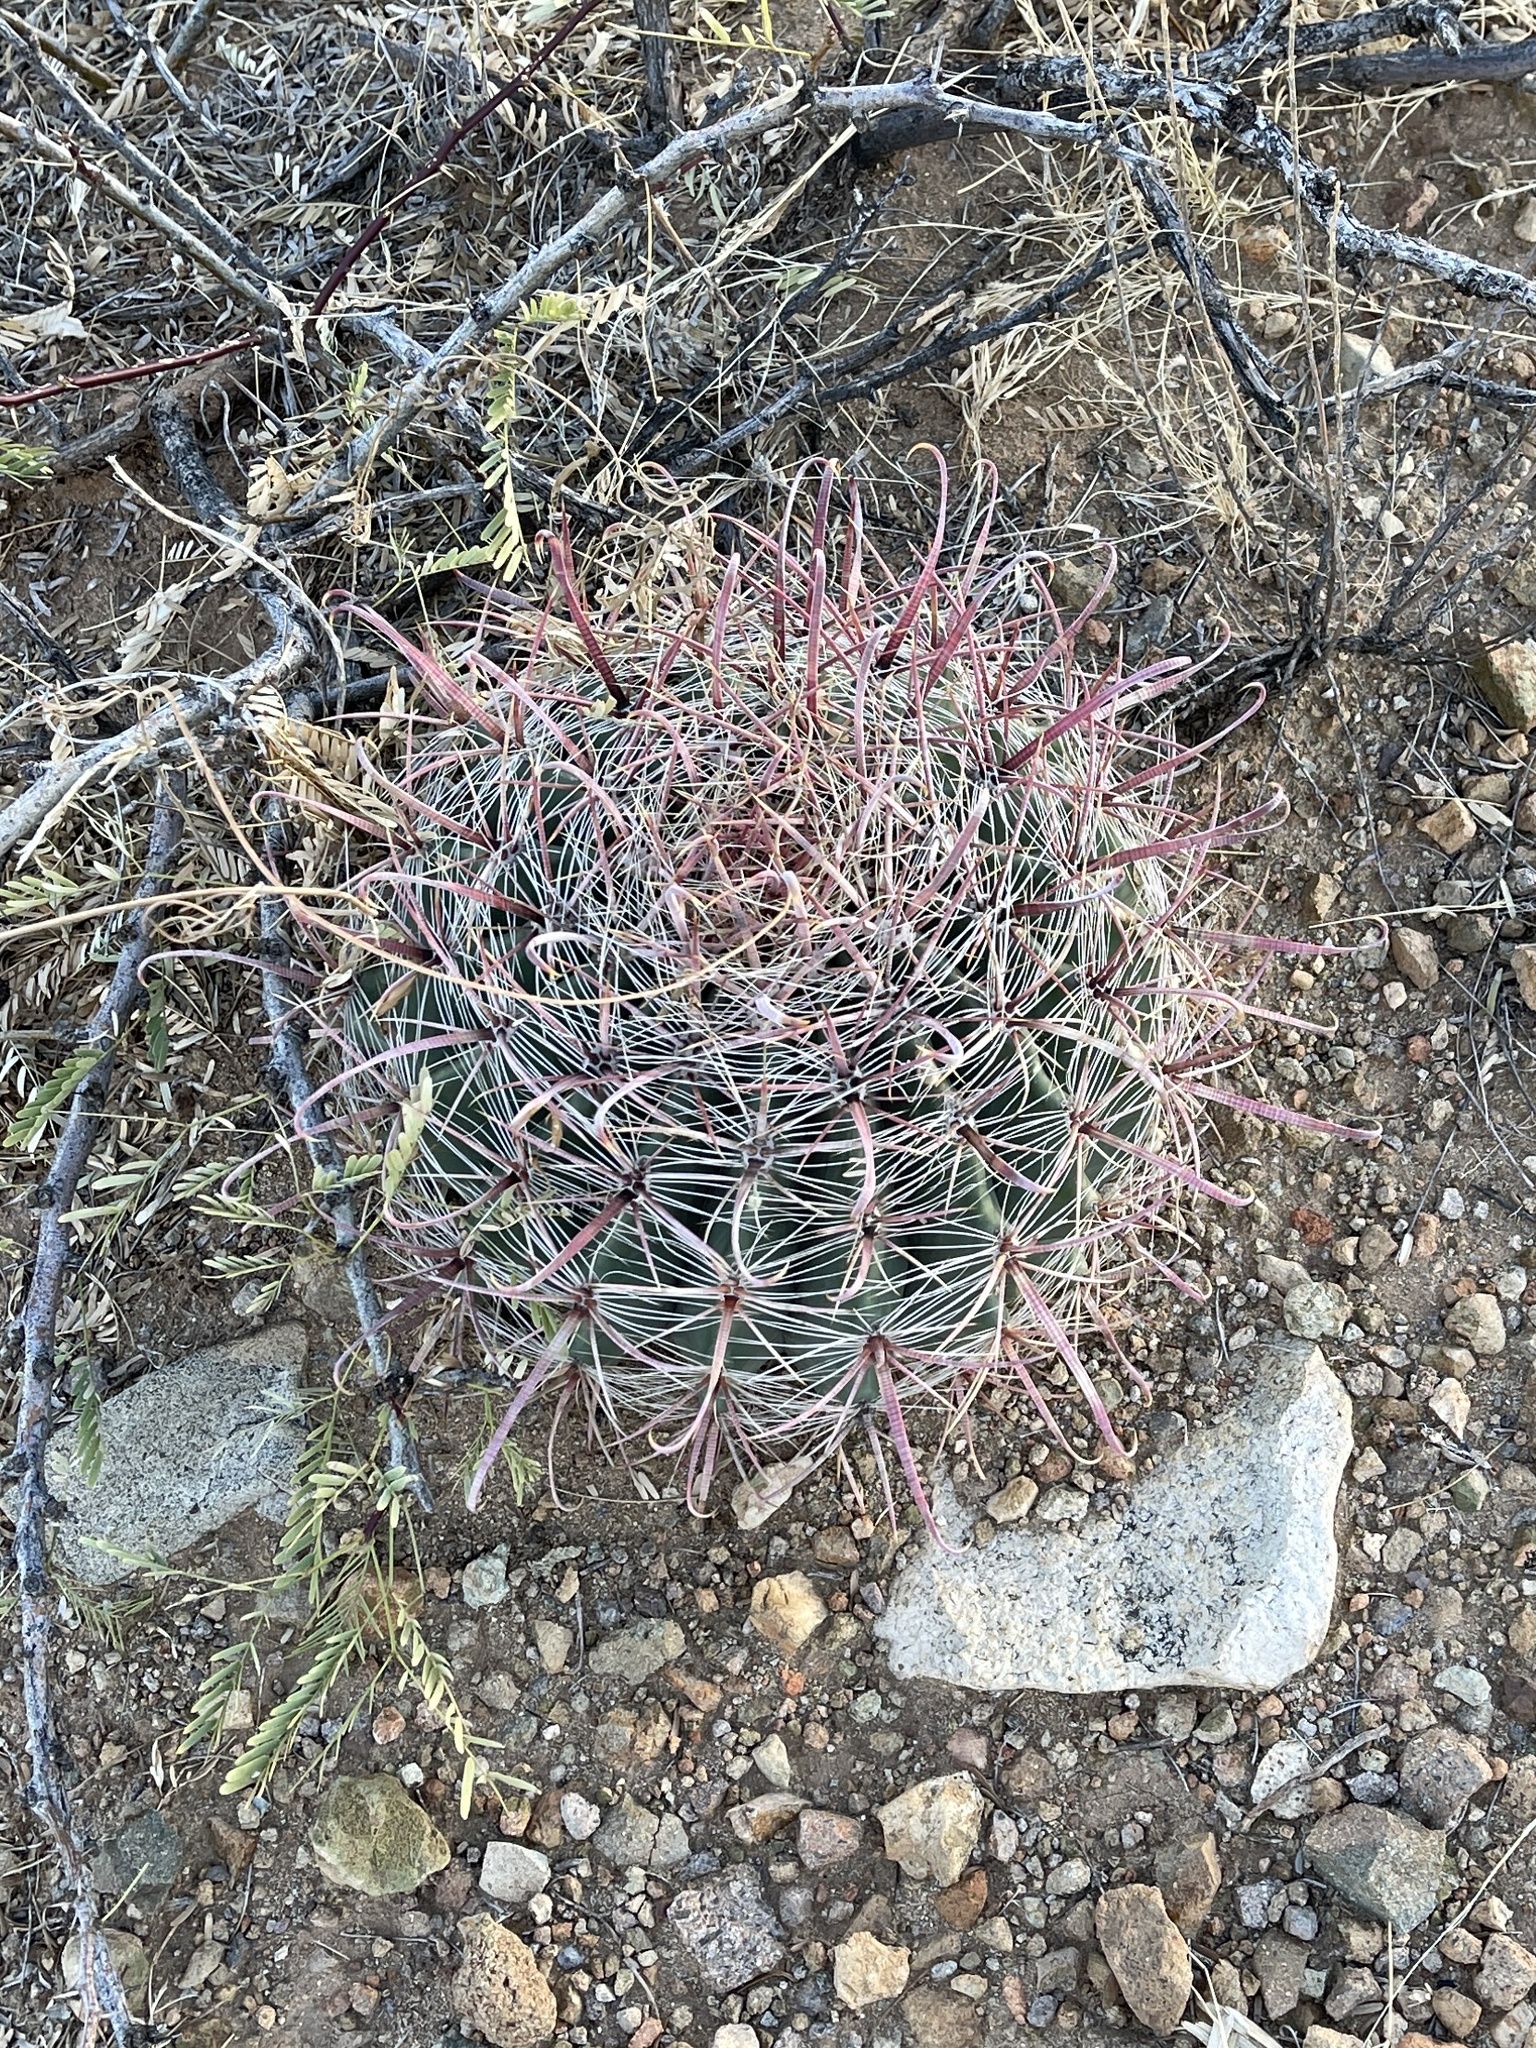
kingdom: Plantae
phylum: Tracheophyta
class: Magnoliopsida
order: Caryophyllales
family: Cactaceae
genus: Ferocactus
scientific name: Ferocactus wislizeni
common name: Candy barrel cactus
